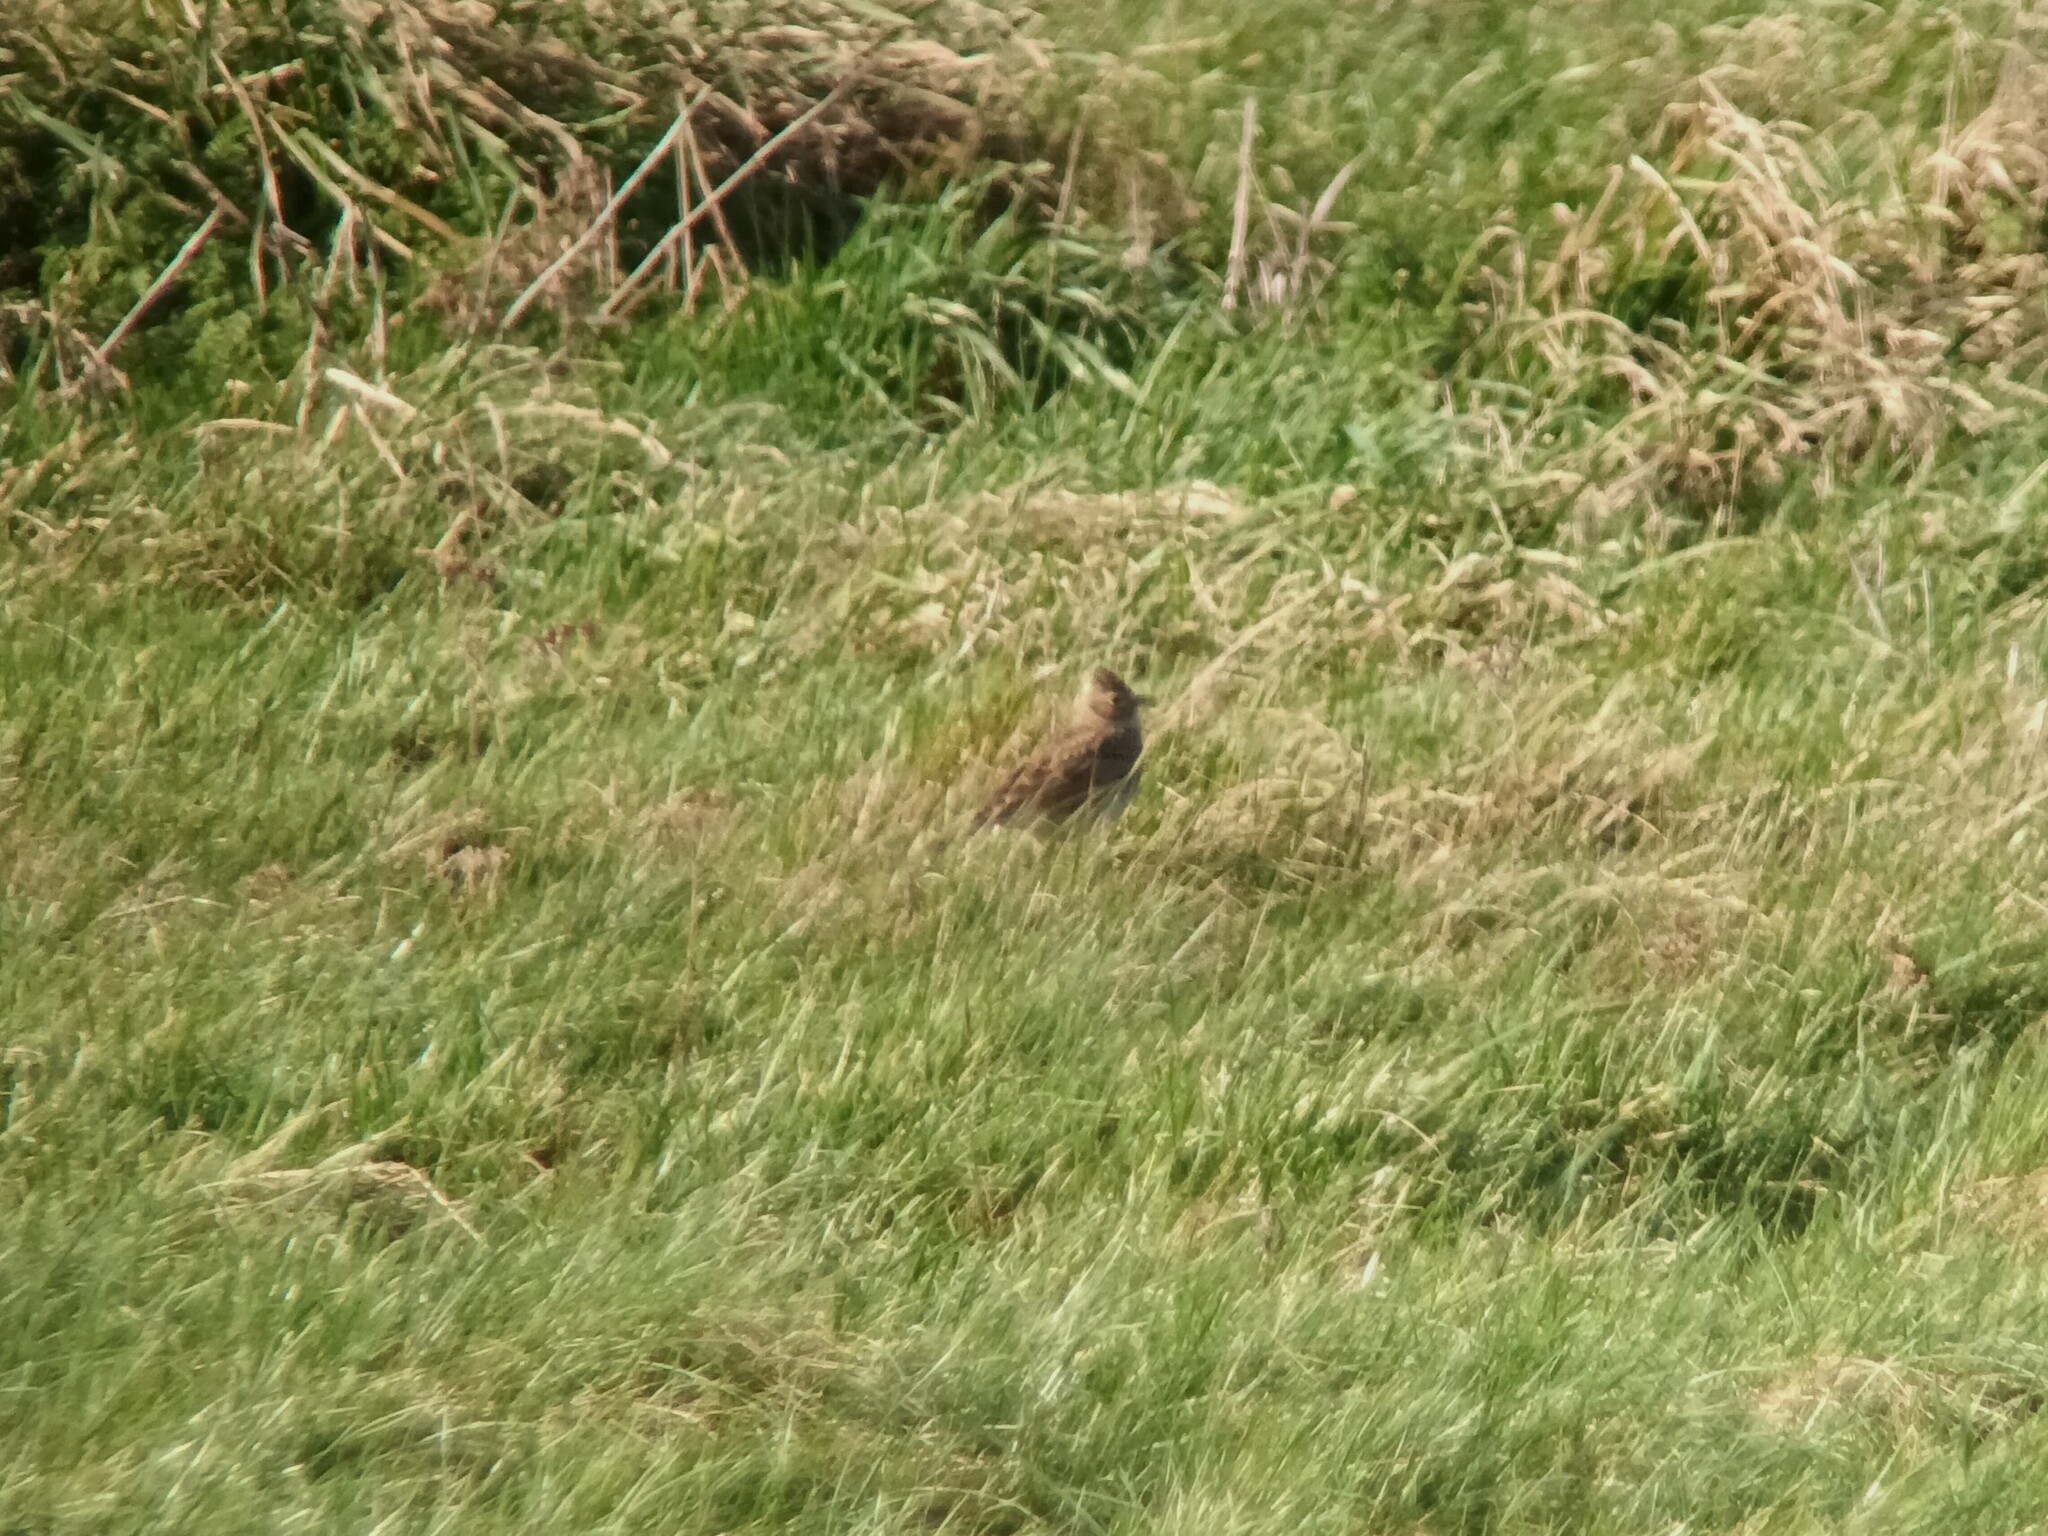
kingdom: Animalia
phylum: Chordata
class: Aves
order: Passeriformes
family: Alaudidae
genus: Alauda
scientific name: Alauda arvensis
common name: Eurasian skylark
